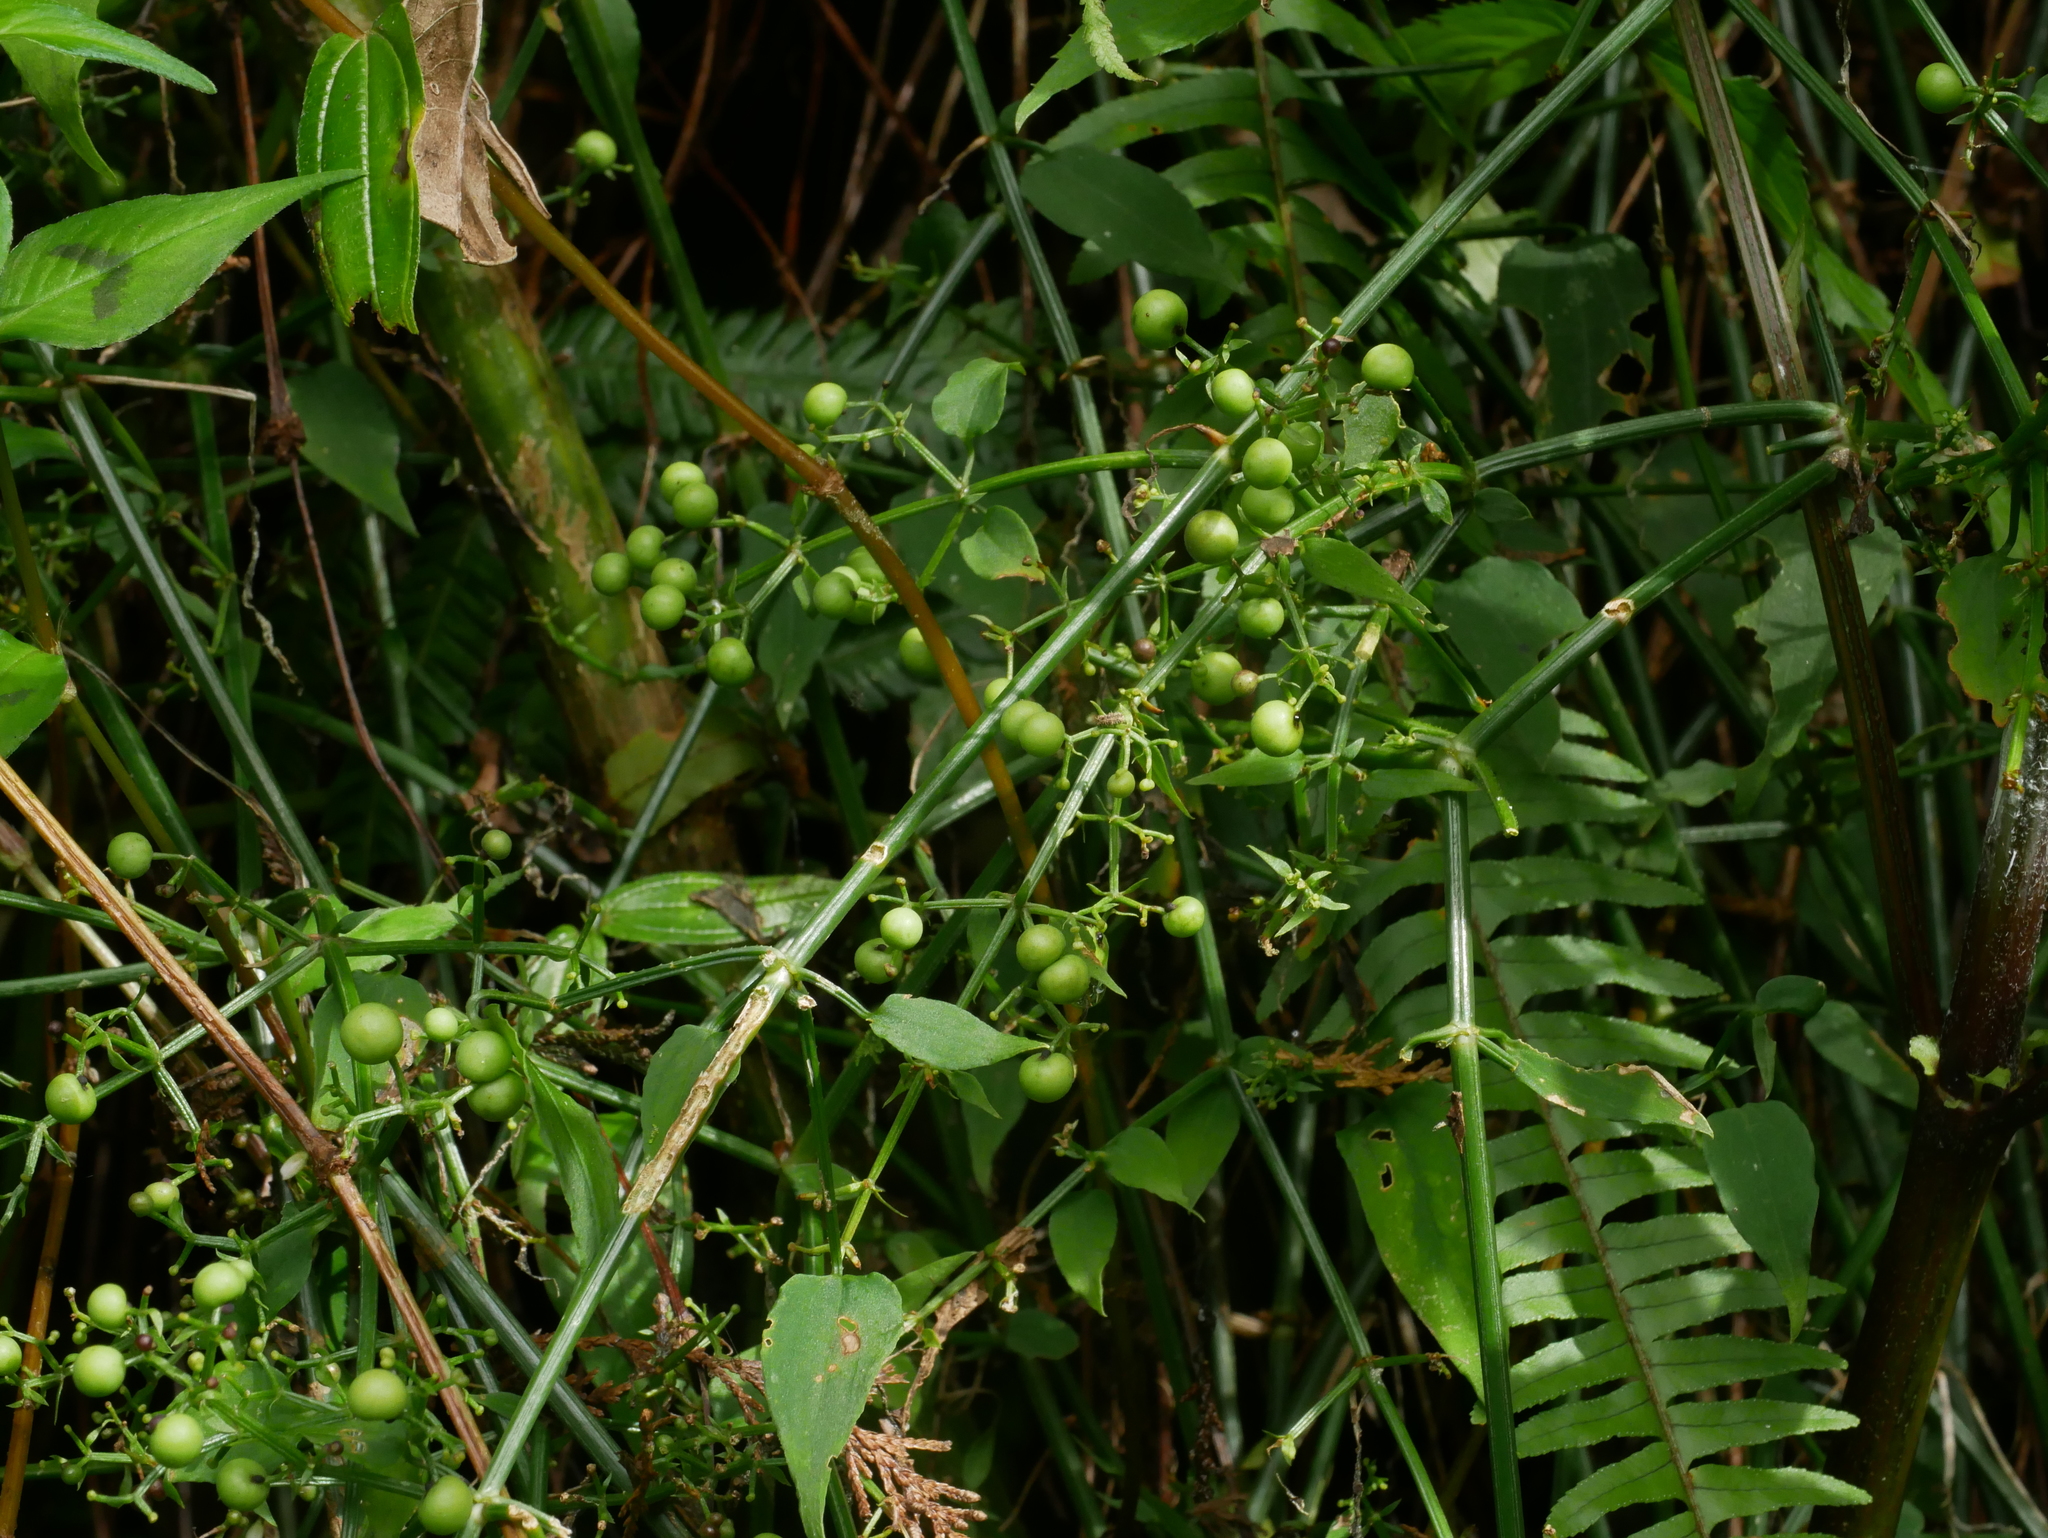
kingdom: Plantae
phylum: Tracheophyta
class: Magnoliopsida
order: Gentianales
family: Rubiaceae
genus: Rubia
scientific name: Rubia linii
